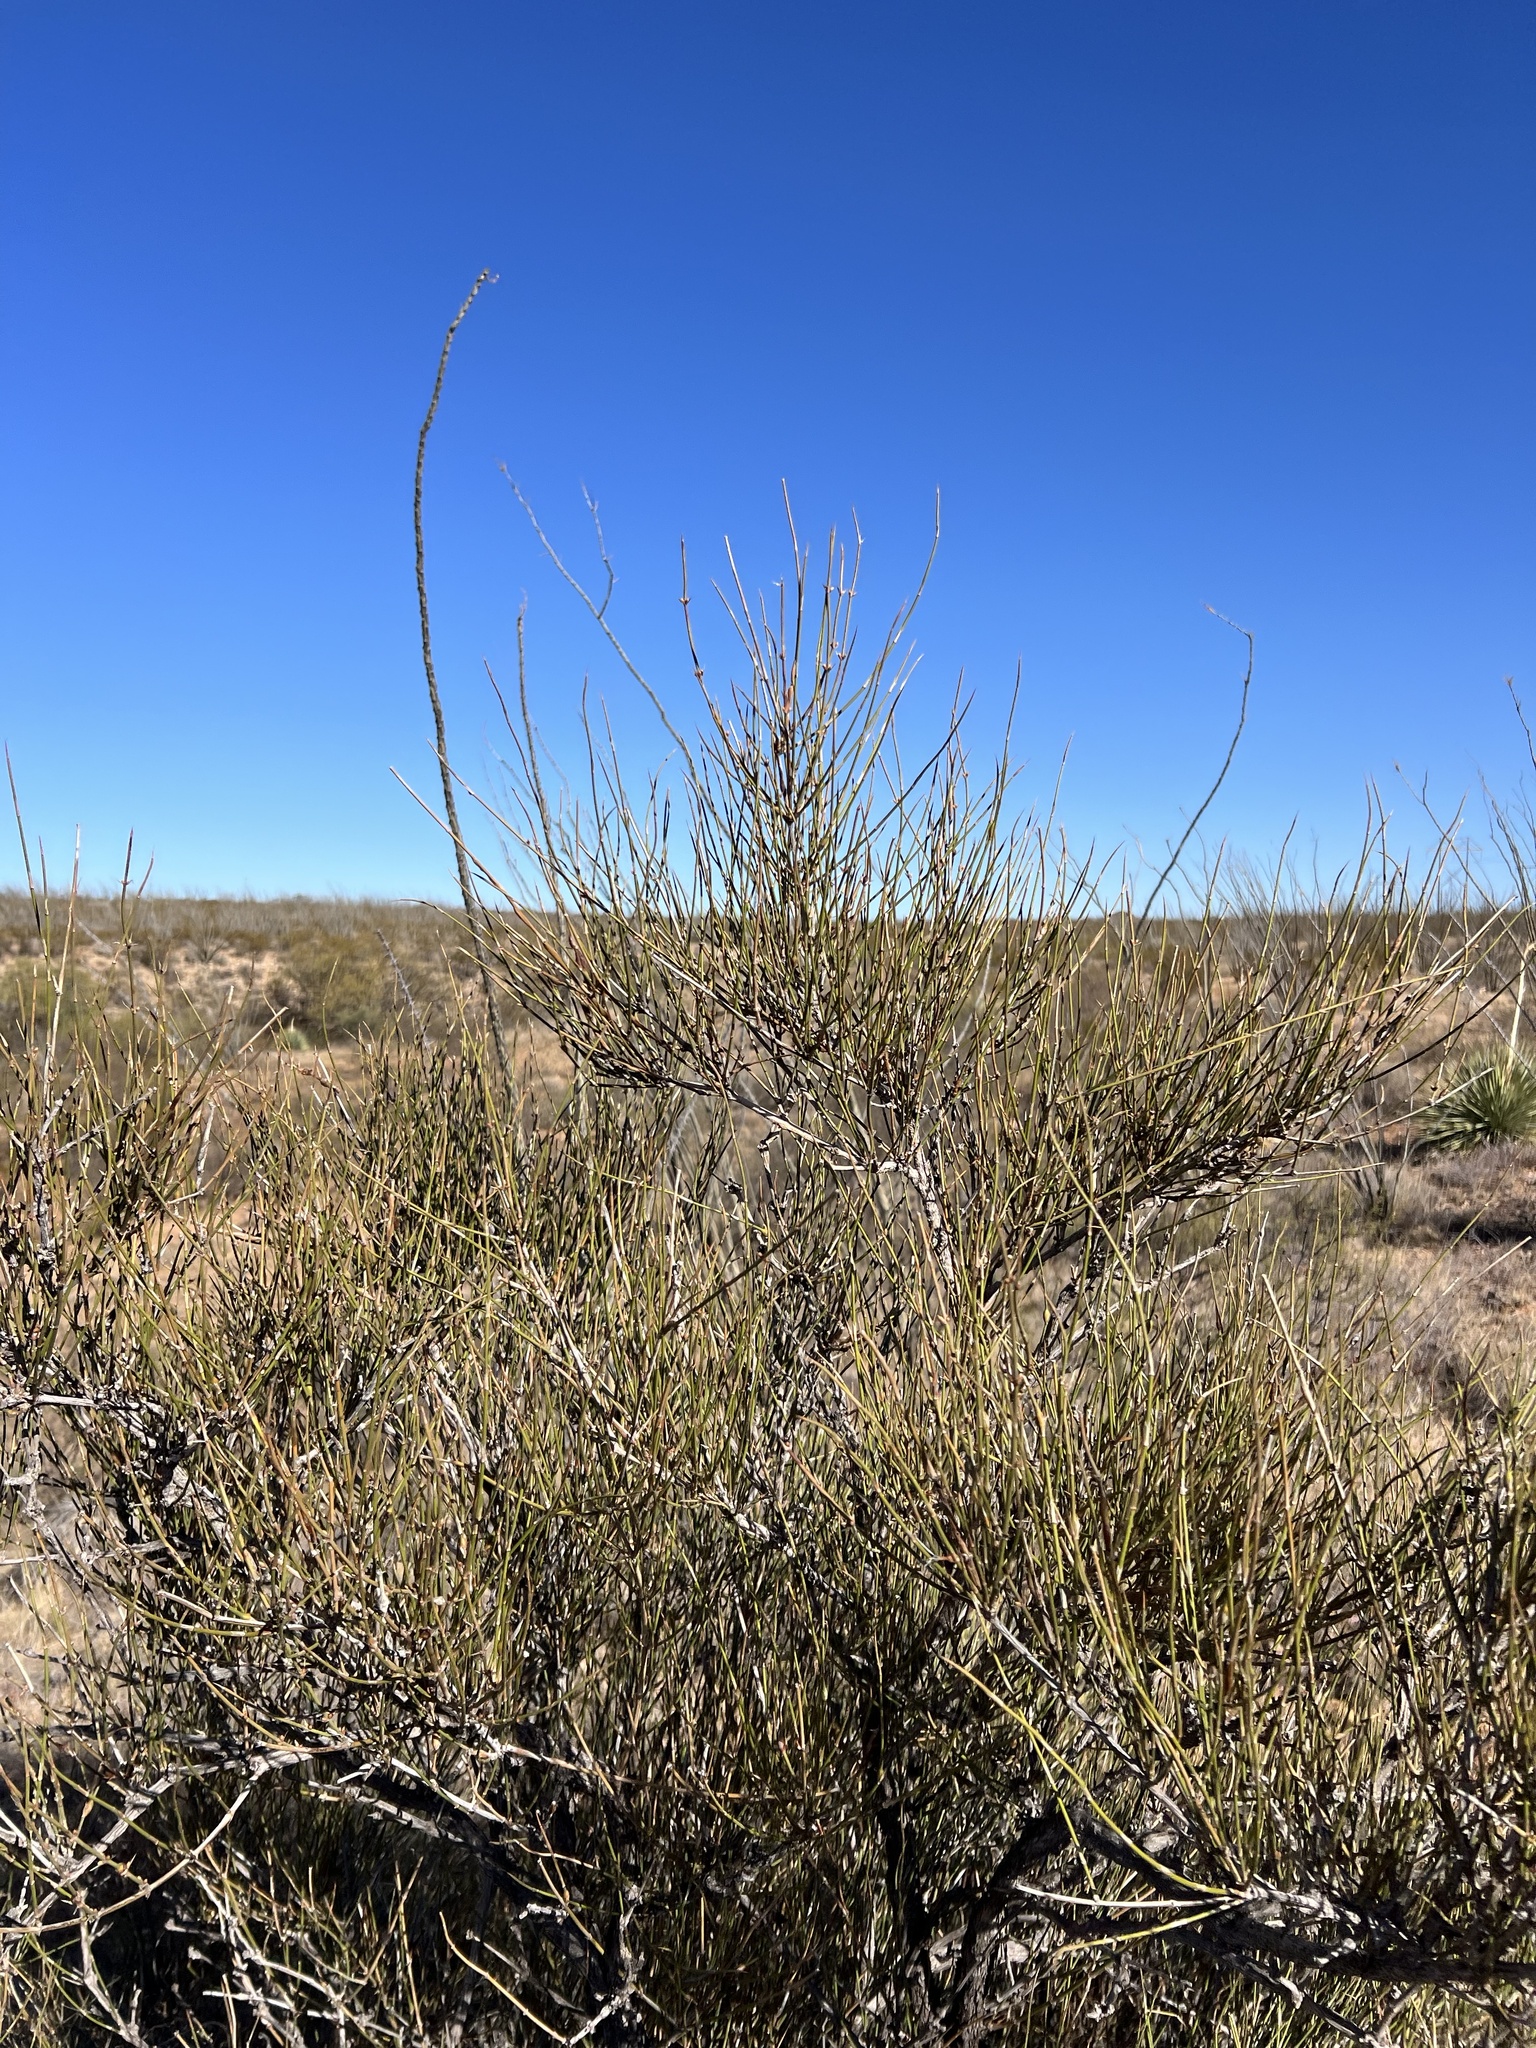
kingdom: Plantae
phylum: Tracheophyta
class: Gnetopsida
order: Ephedrales
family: Ephedraceae
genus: Ephedra
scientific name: Ephedra trifurca
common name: Mexican-tea
